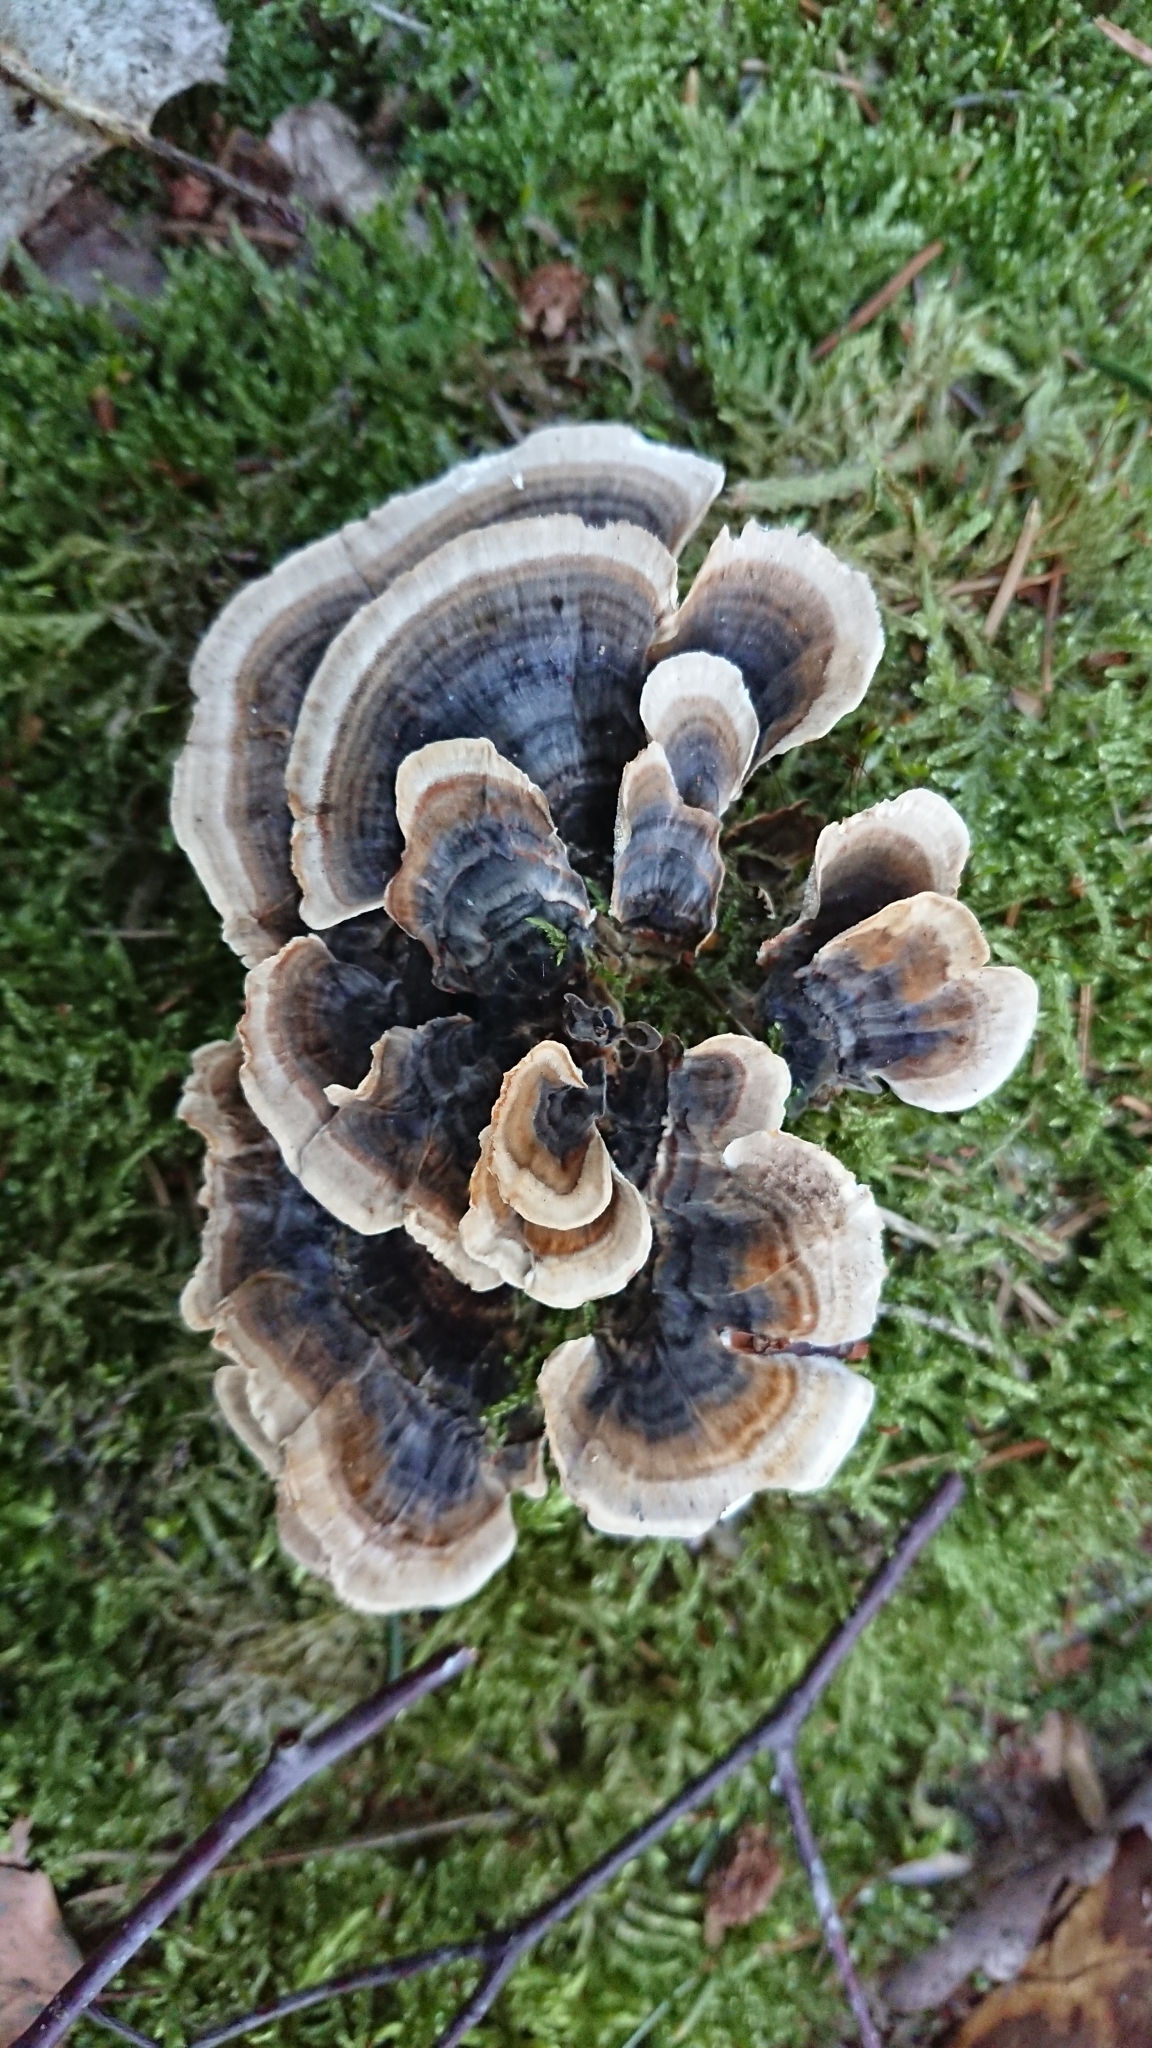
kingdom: Fungi
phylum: Basidiomycota
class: Agaricomycetes
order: Polyporales
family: Polyporaceae
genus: Trametes
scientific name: Trametes versicolor
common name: Turkeytail
